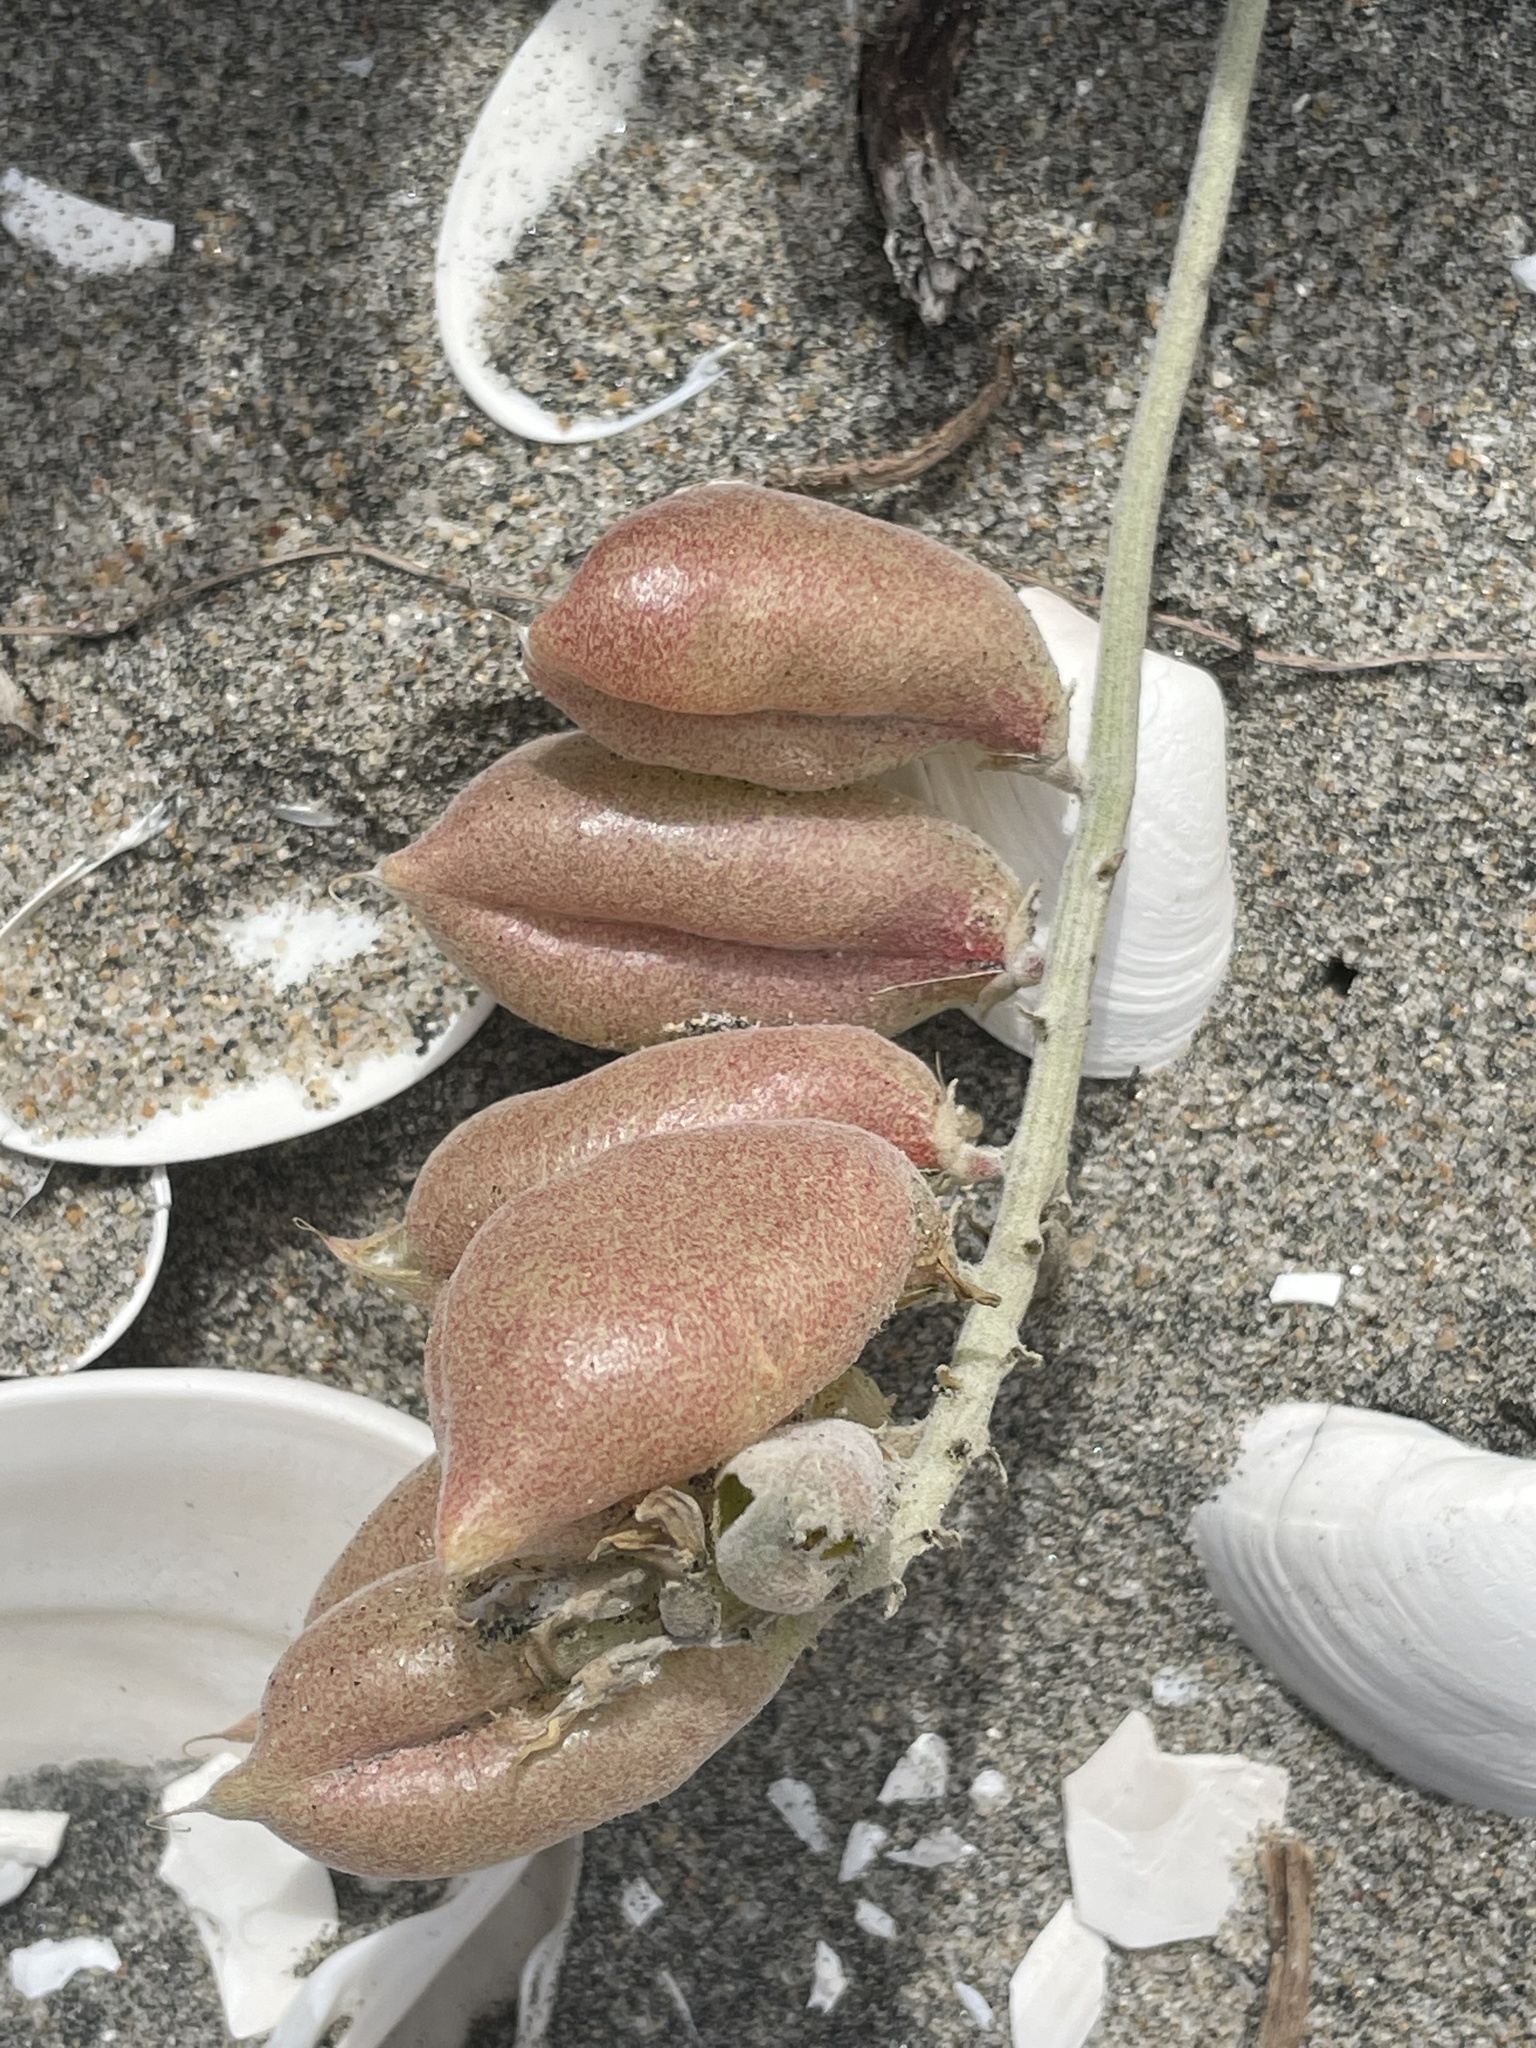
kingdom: Plantae
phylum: Tracheophyta
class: Magnoliopsida
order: Fabales
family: Fabaceae
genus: Astragalus
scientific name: Astragalus anemophilus
